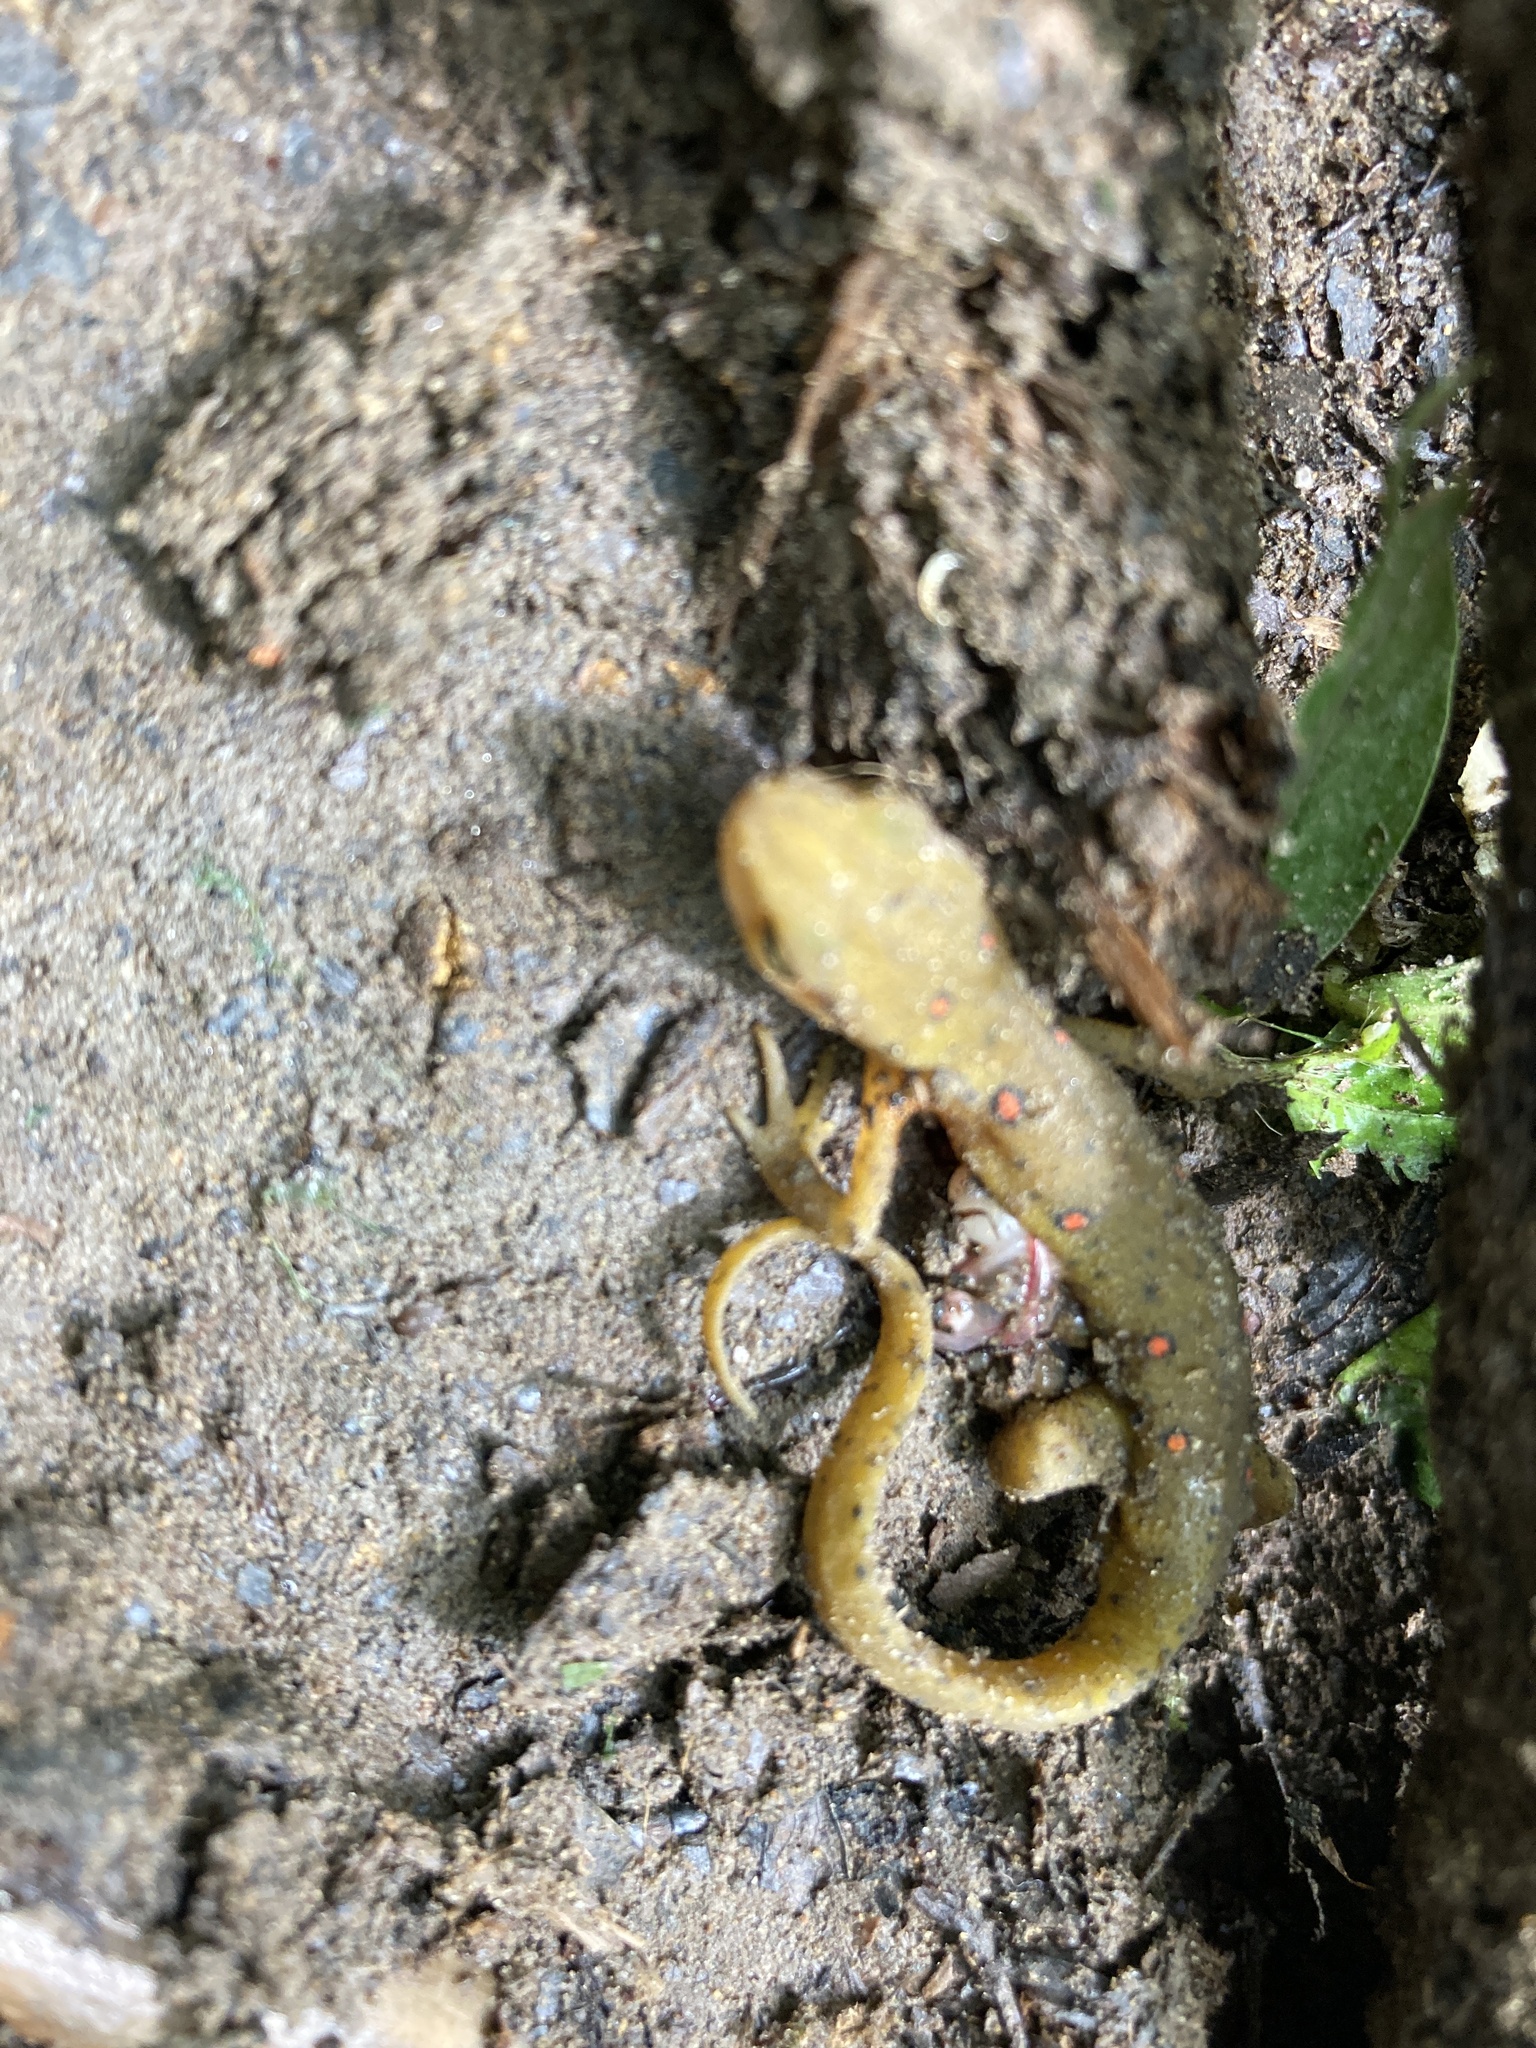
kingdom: Animalia
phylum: Chordata
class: Amphibia
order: Caudata
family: Salamandridae
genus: Notophthalmus
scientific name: Notophthalmus viridescens
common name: Eastern newt
